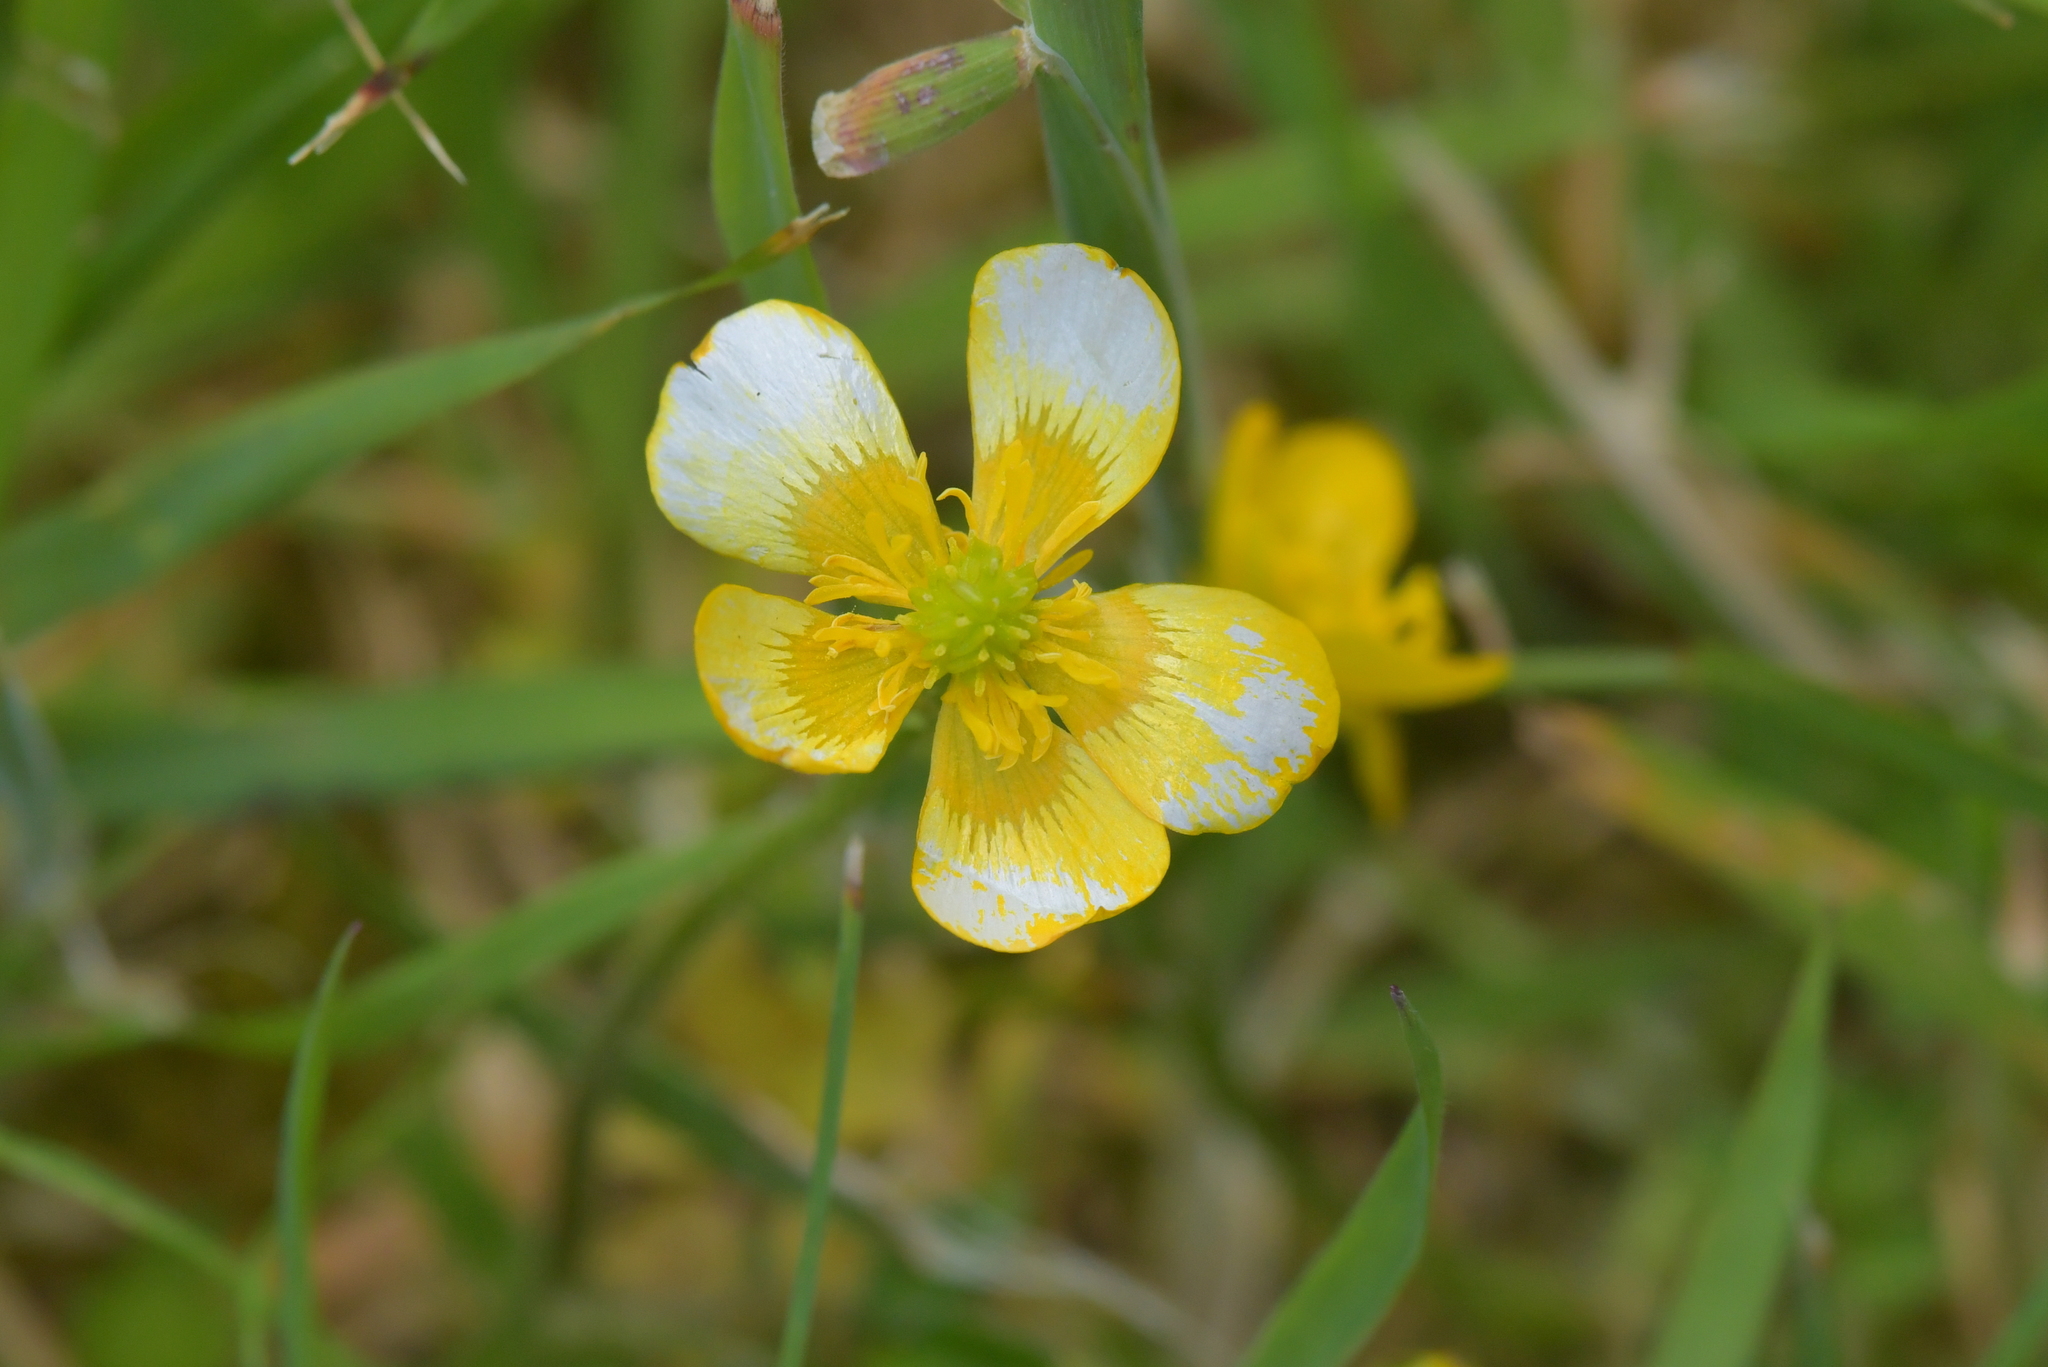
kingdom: Plantae
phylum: Tracheophyta
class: Magnoliopsida
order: Ranunculales
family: Ranunculaceae
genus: Ranunculus
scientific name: Ranunculus repens
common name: Creeping buttercup
